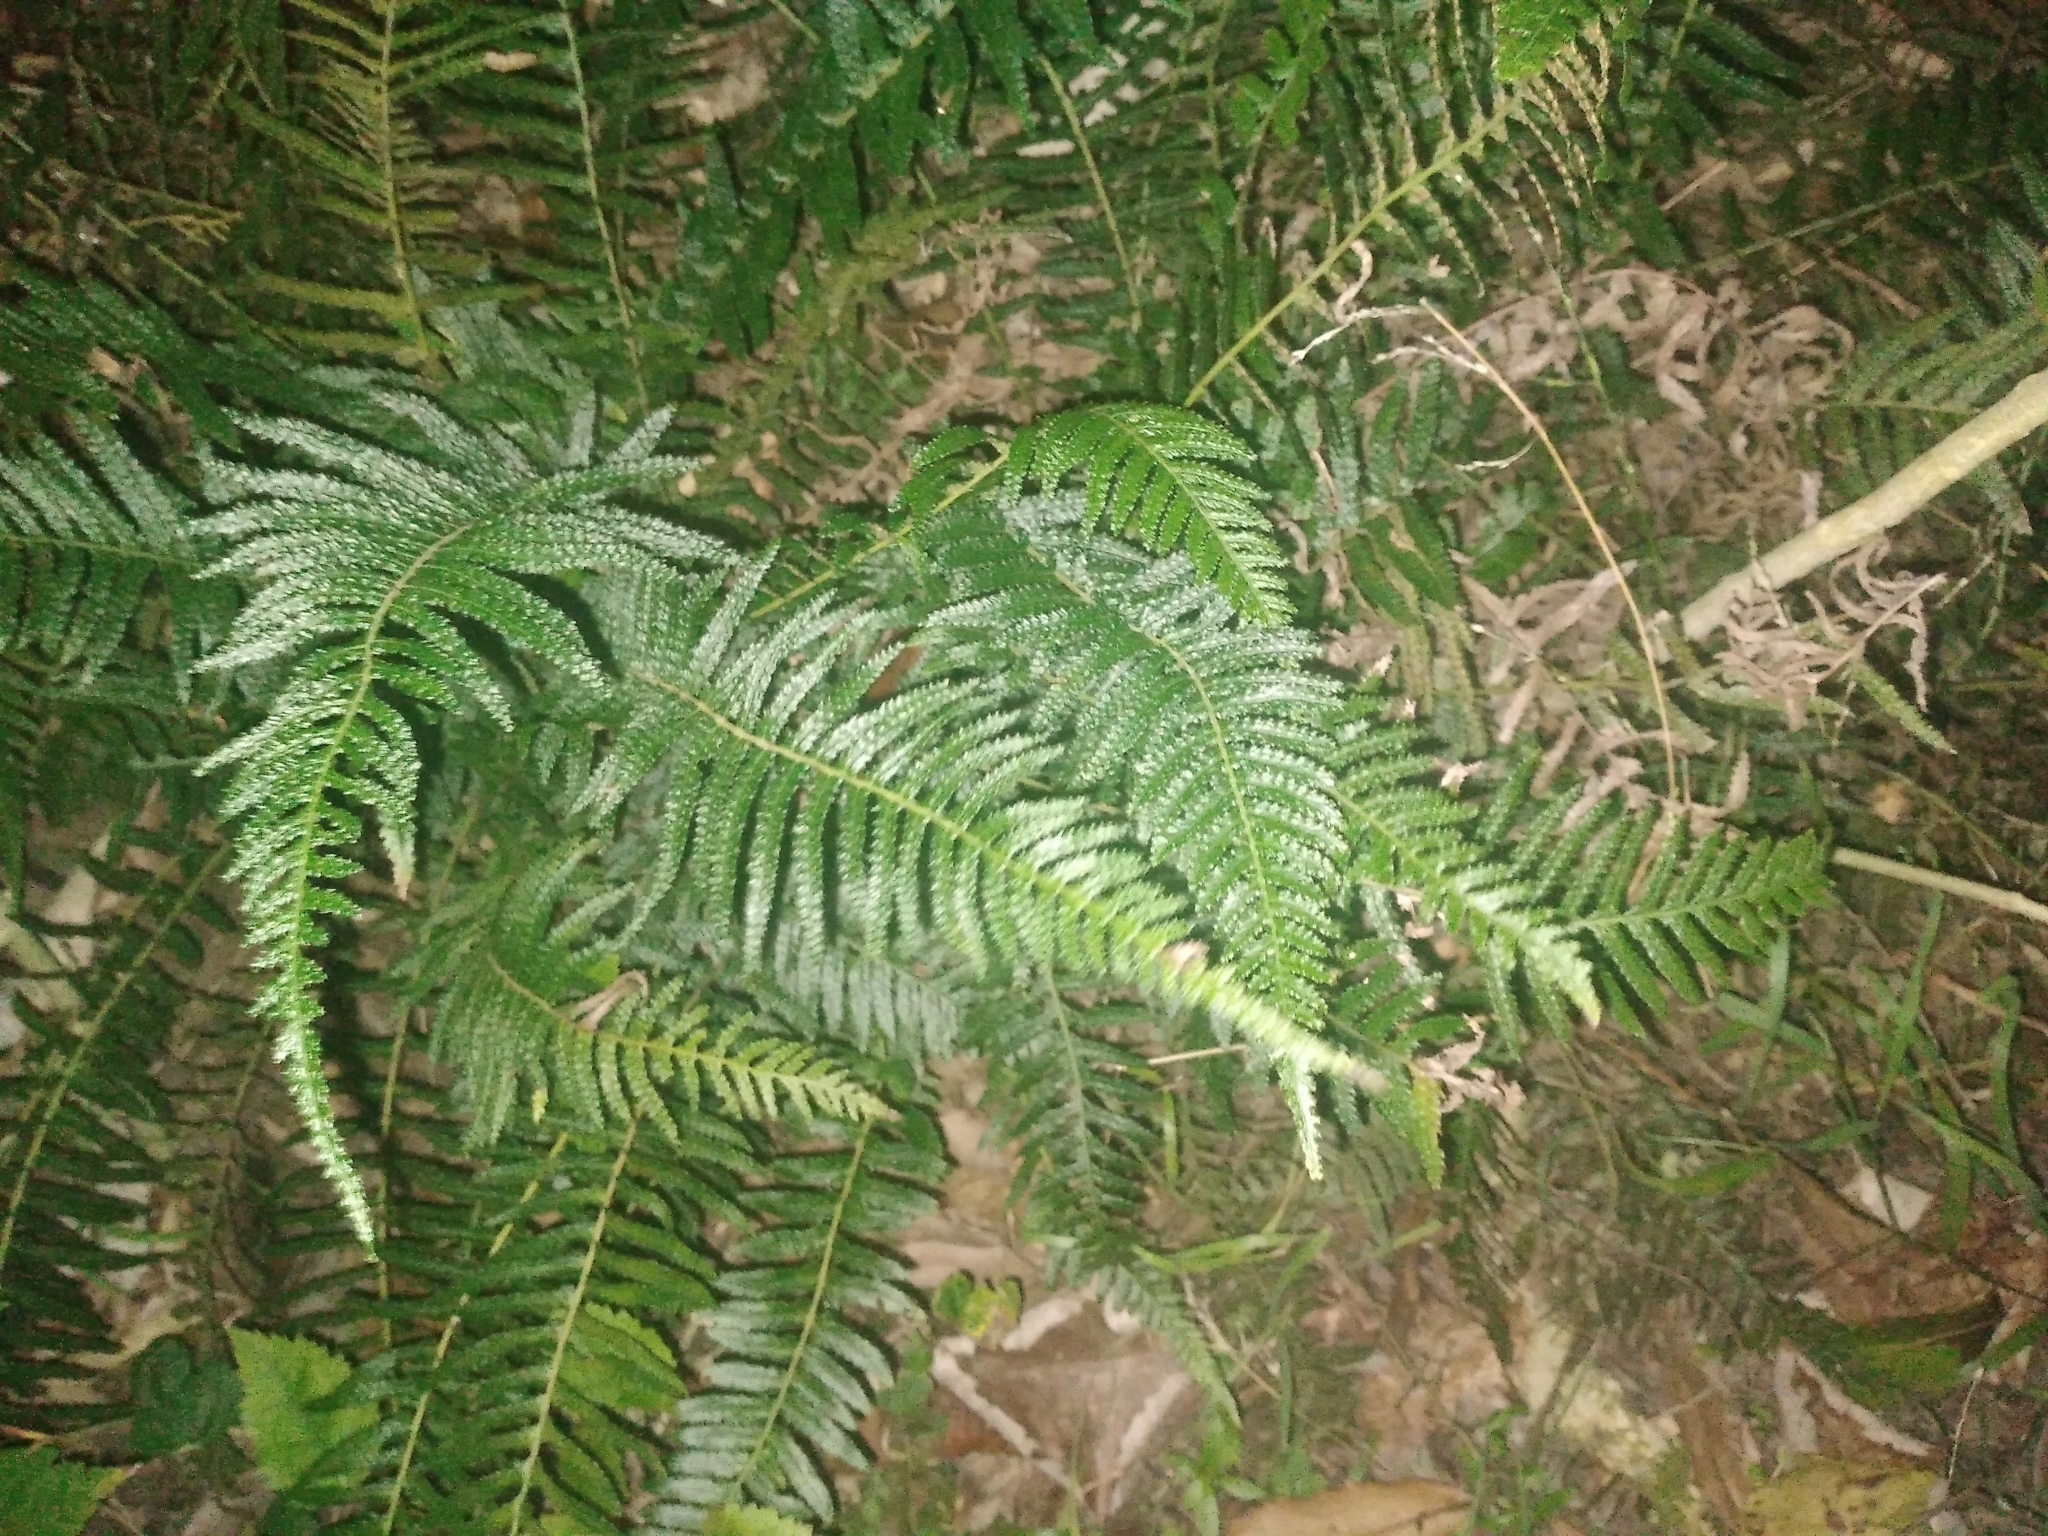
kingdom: Plantae
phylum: Tracheophyta
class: Polypodiopsida
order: Polypodiales
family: Blechnaceae
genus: Doodia
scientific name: Doodia australis
